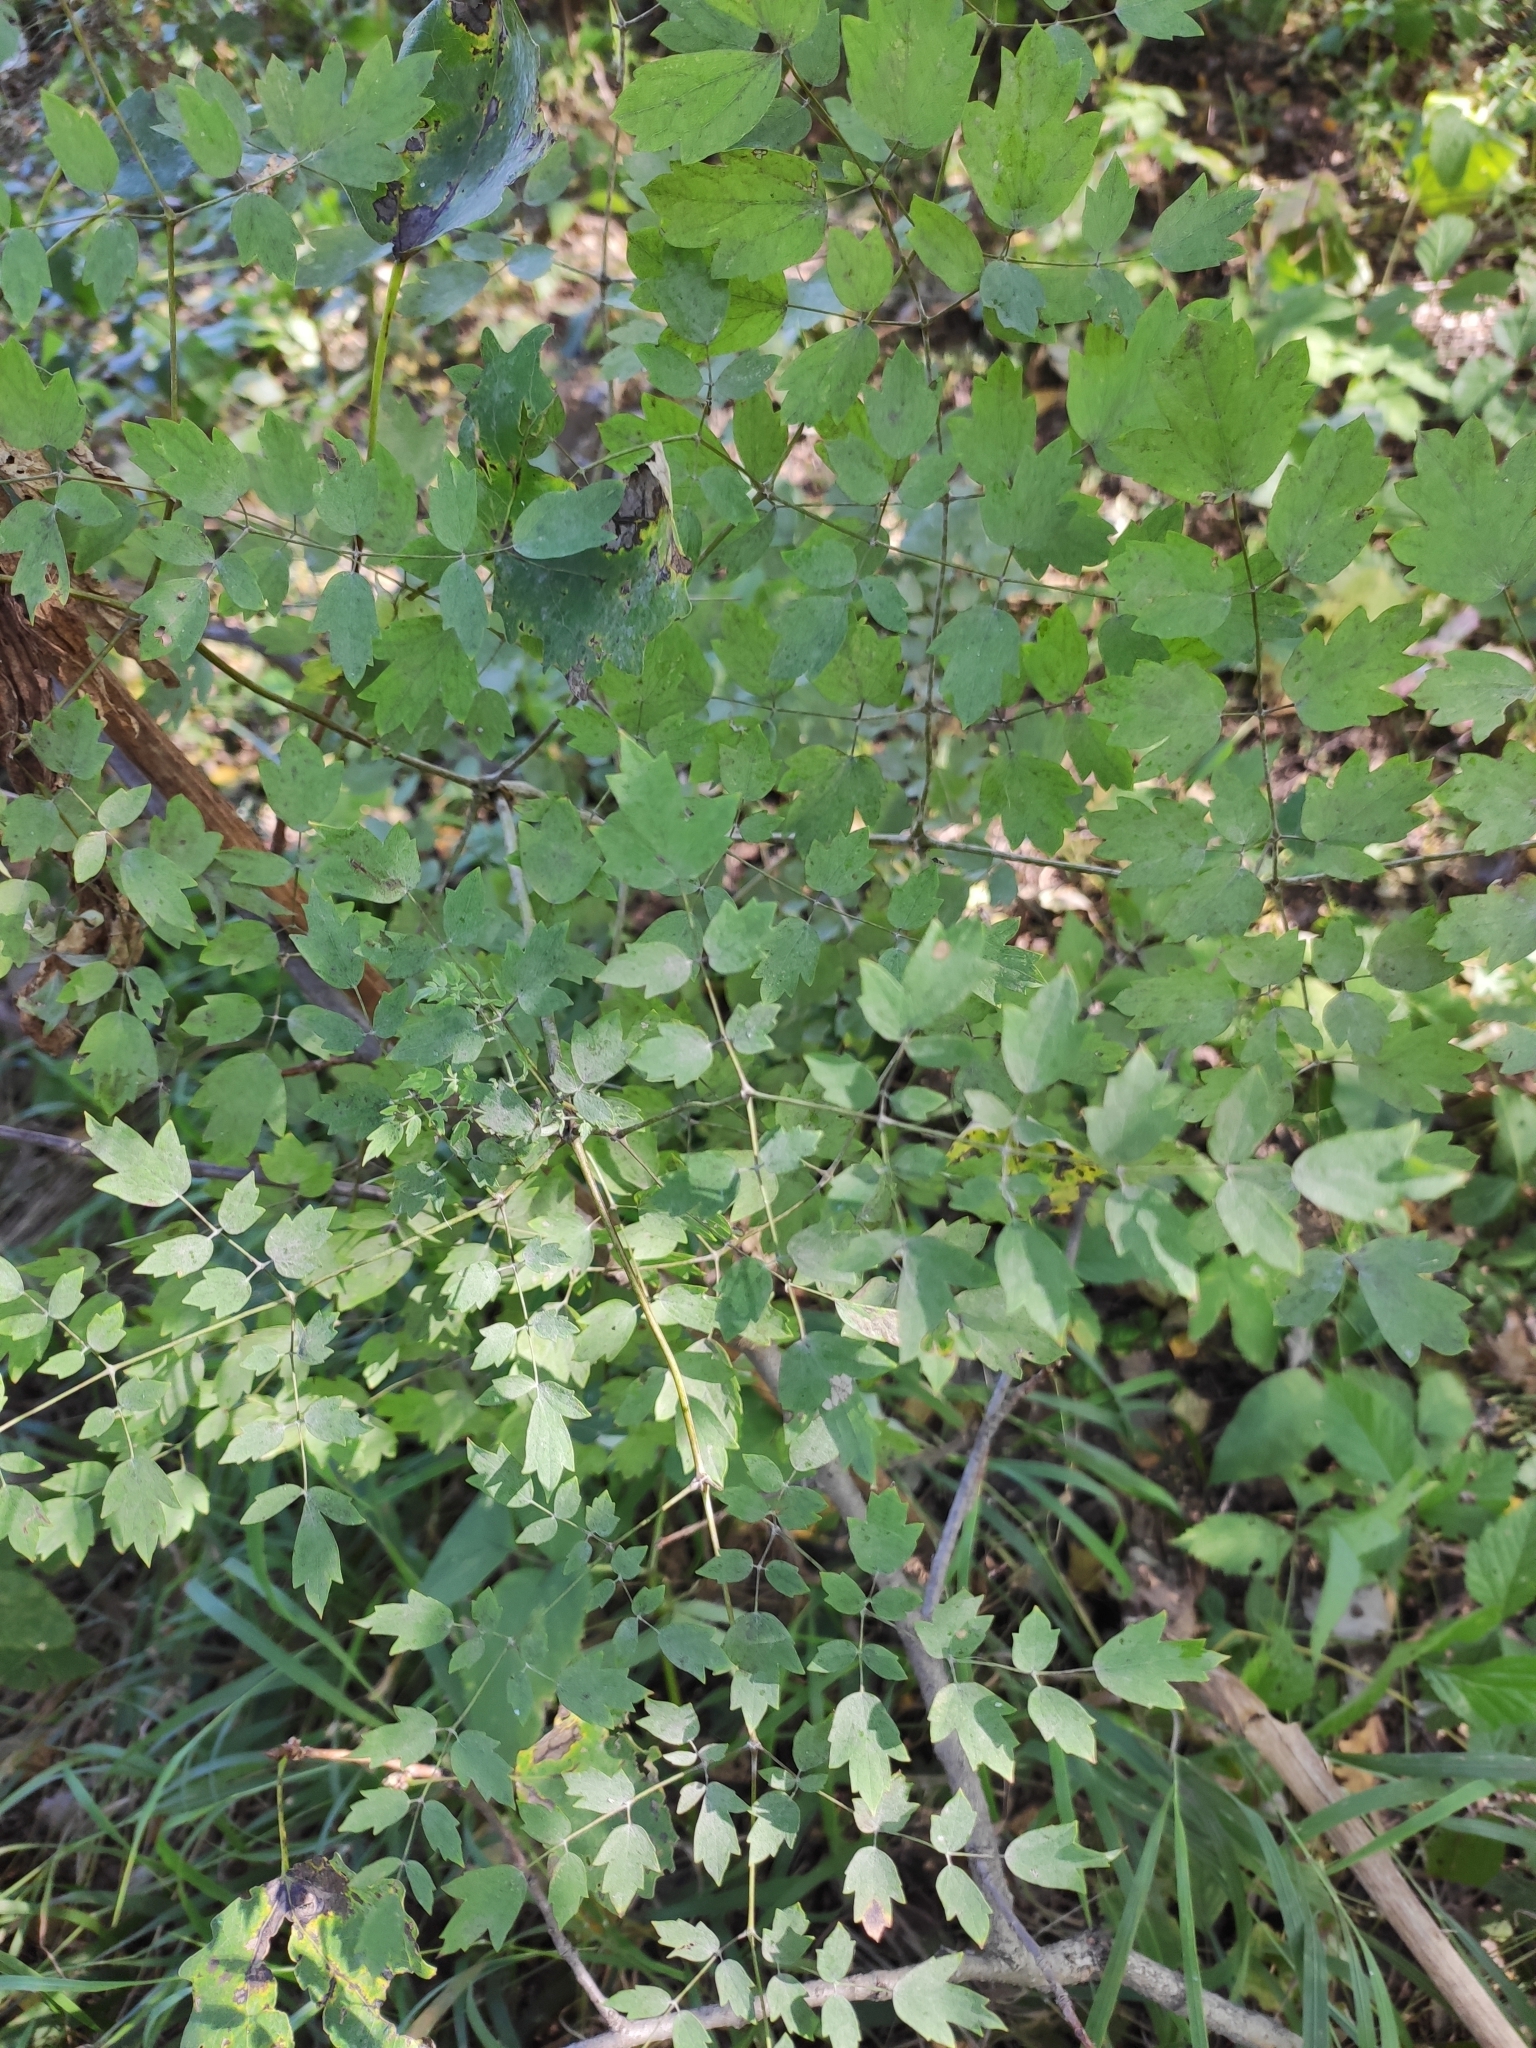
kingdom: Plantae
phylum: Tracheophyta
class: Magnoliopsida
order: Ranunculales
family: Ranunculaceae
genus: Thalictrum
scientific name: Thalictrum minus
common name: Lesser meadow-rue
